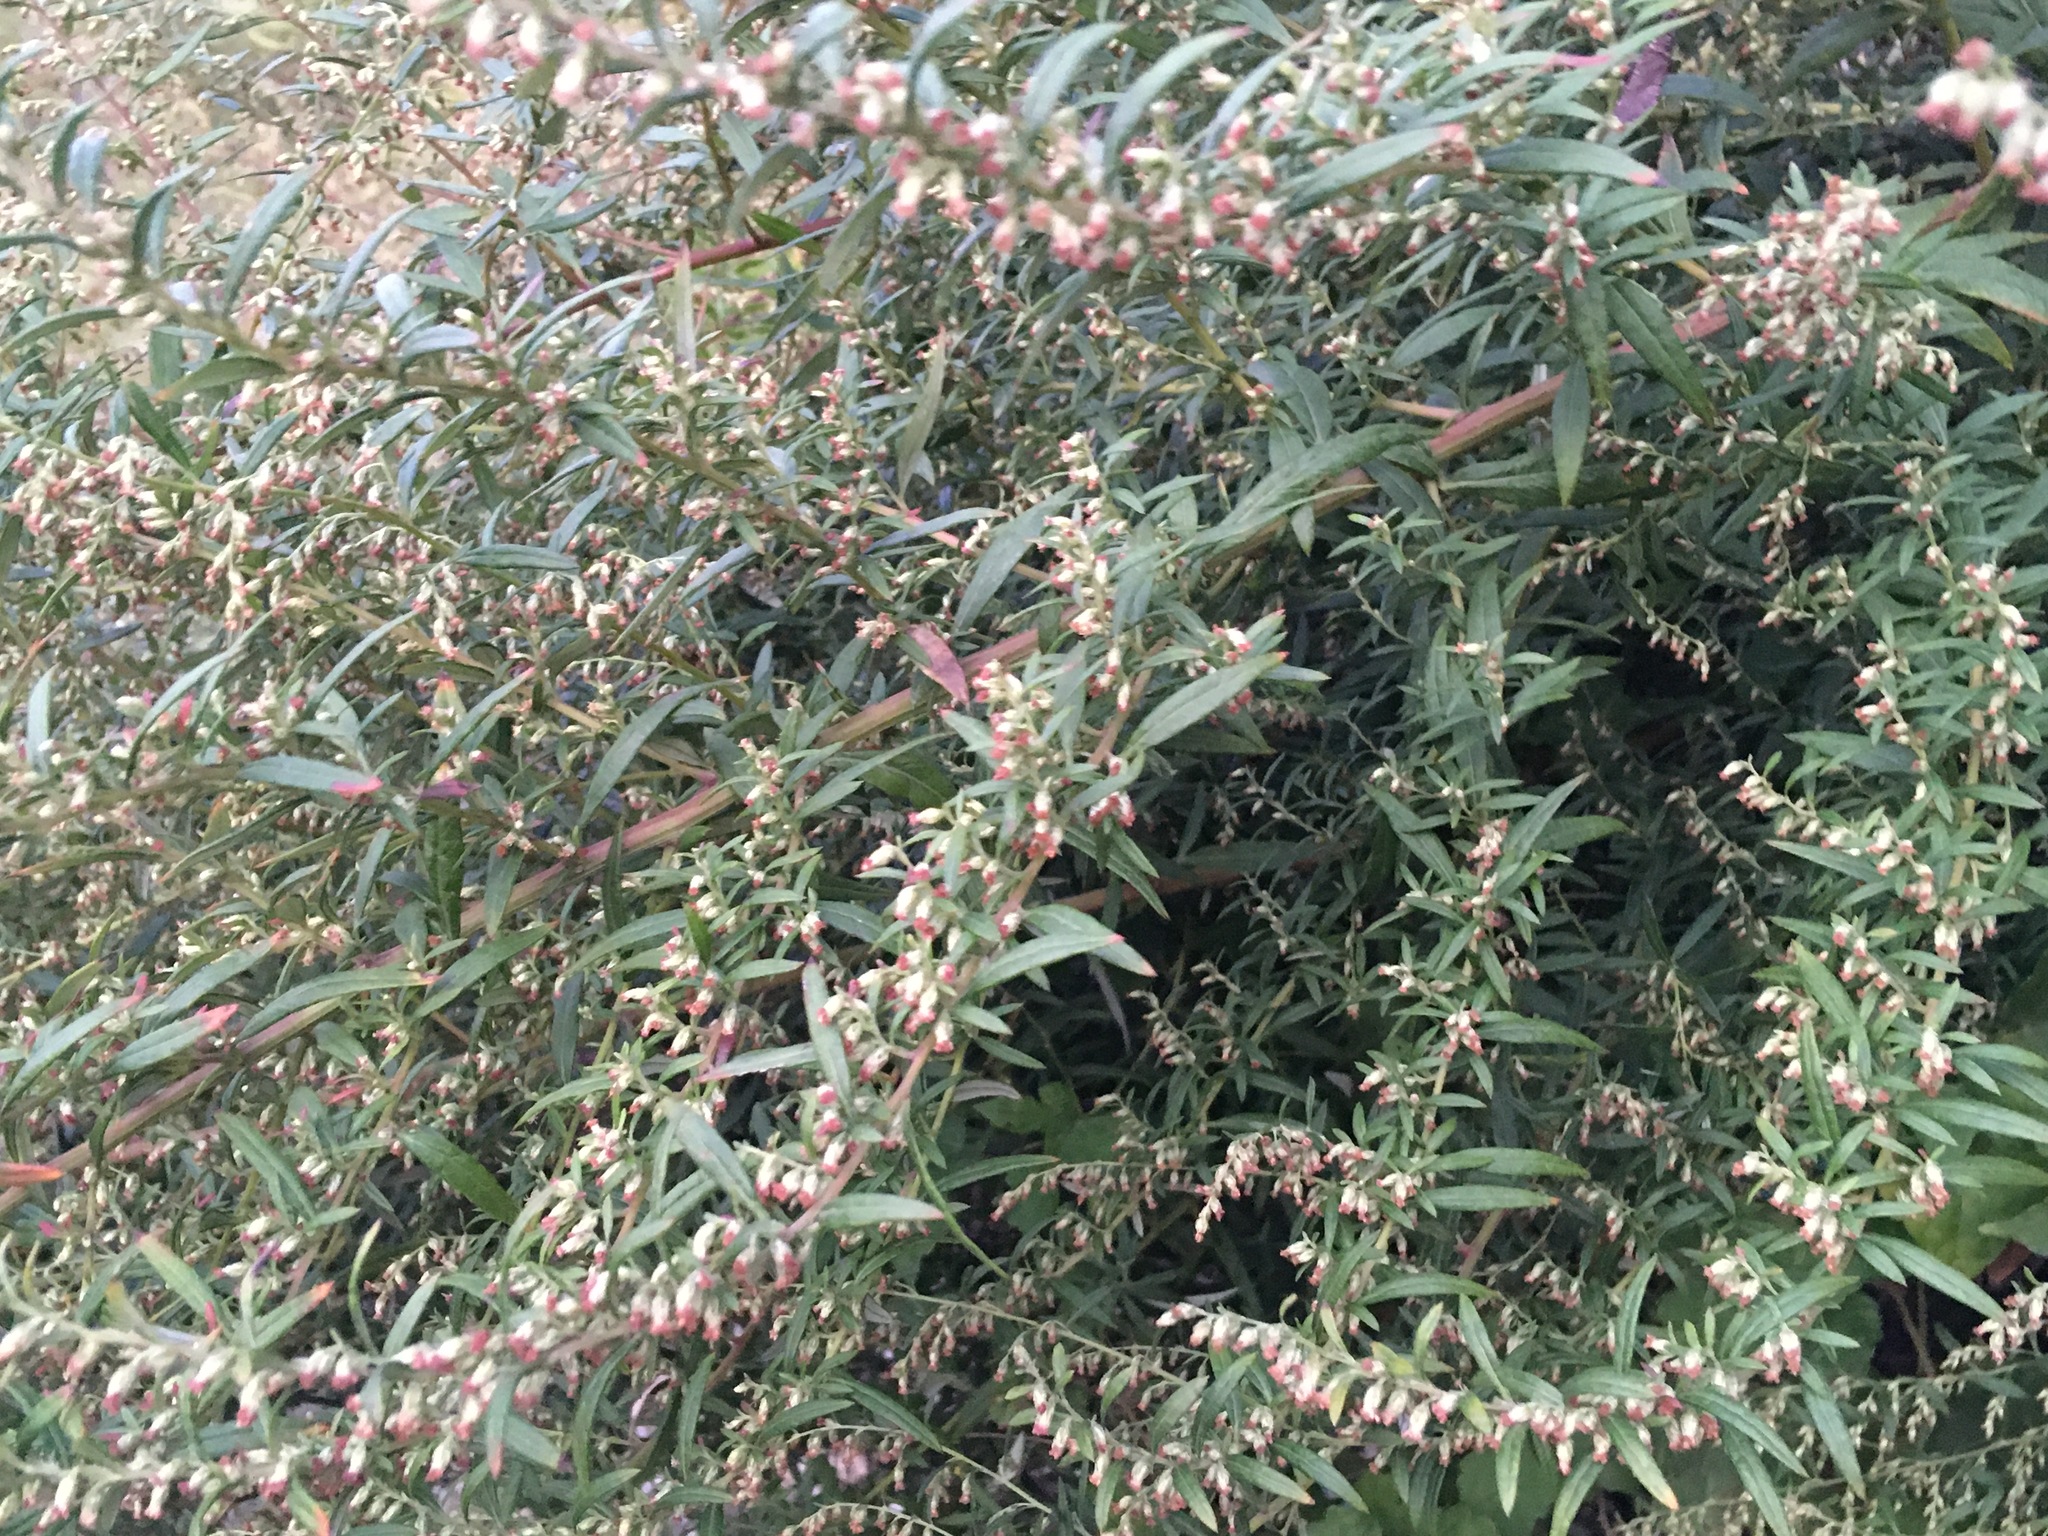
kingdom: Plantae
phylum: Tracheophyta
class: Magnoliopsida
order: Asterales
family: Asteraceae
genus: Artemisia
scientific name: Artemisia vulgaris
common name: Mugwort
